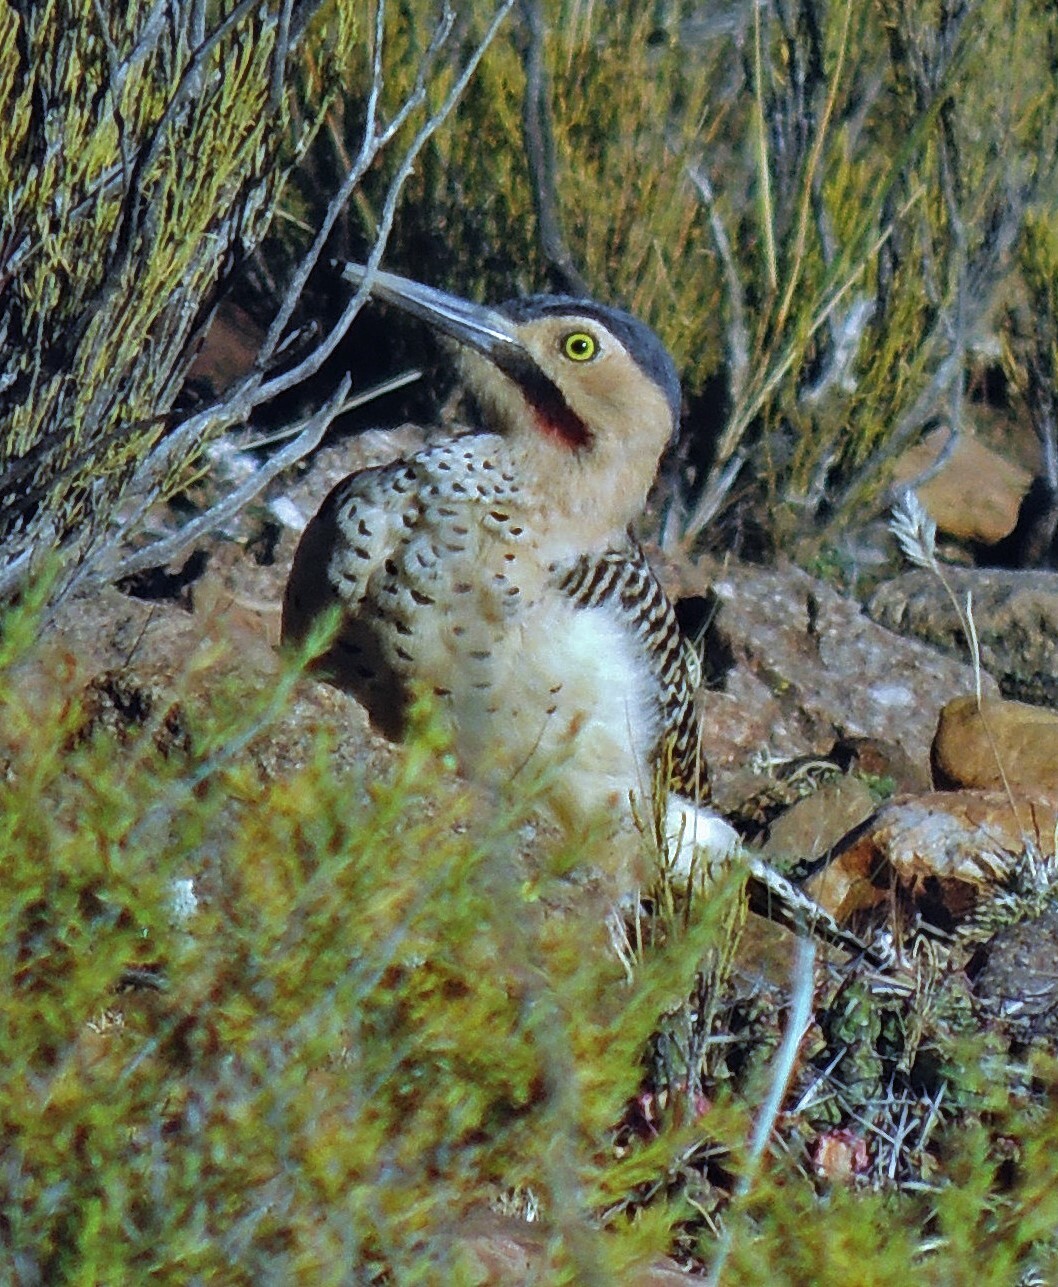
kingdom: Animalia
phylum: Chordata
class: Aves
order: Piciformes
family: Picidae
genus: Colaptes
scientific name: Colaptes rupicola
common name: Andean flicker
